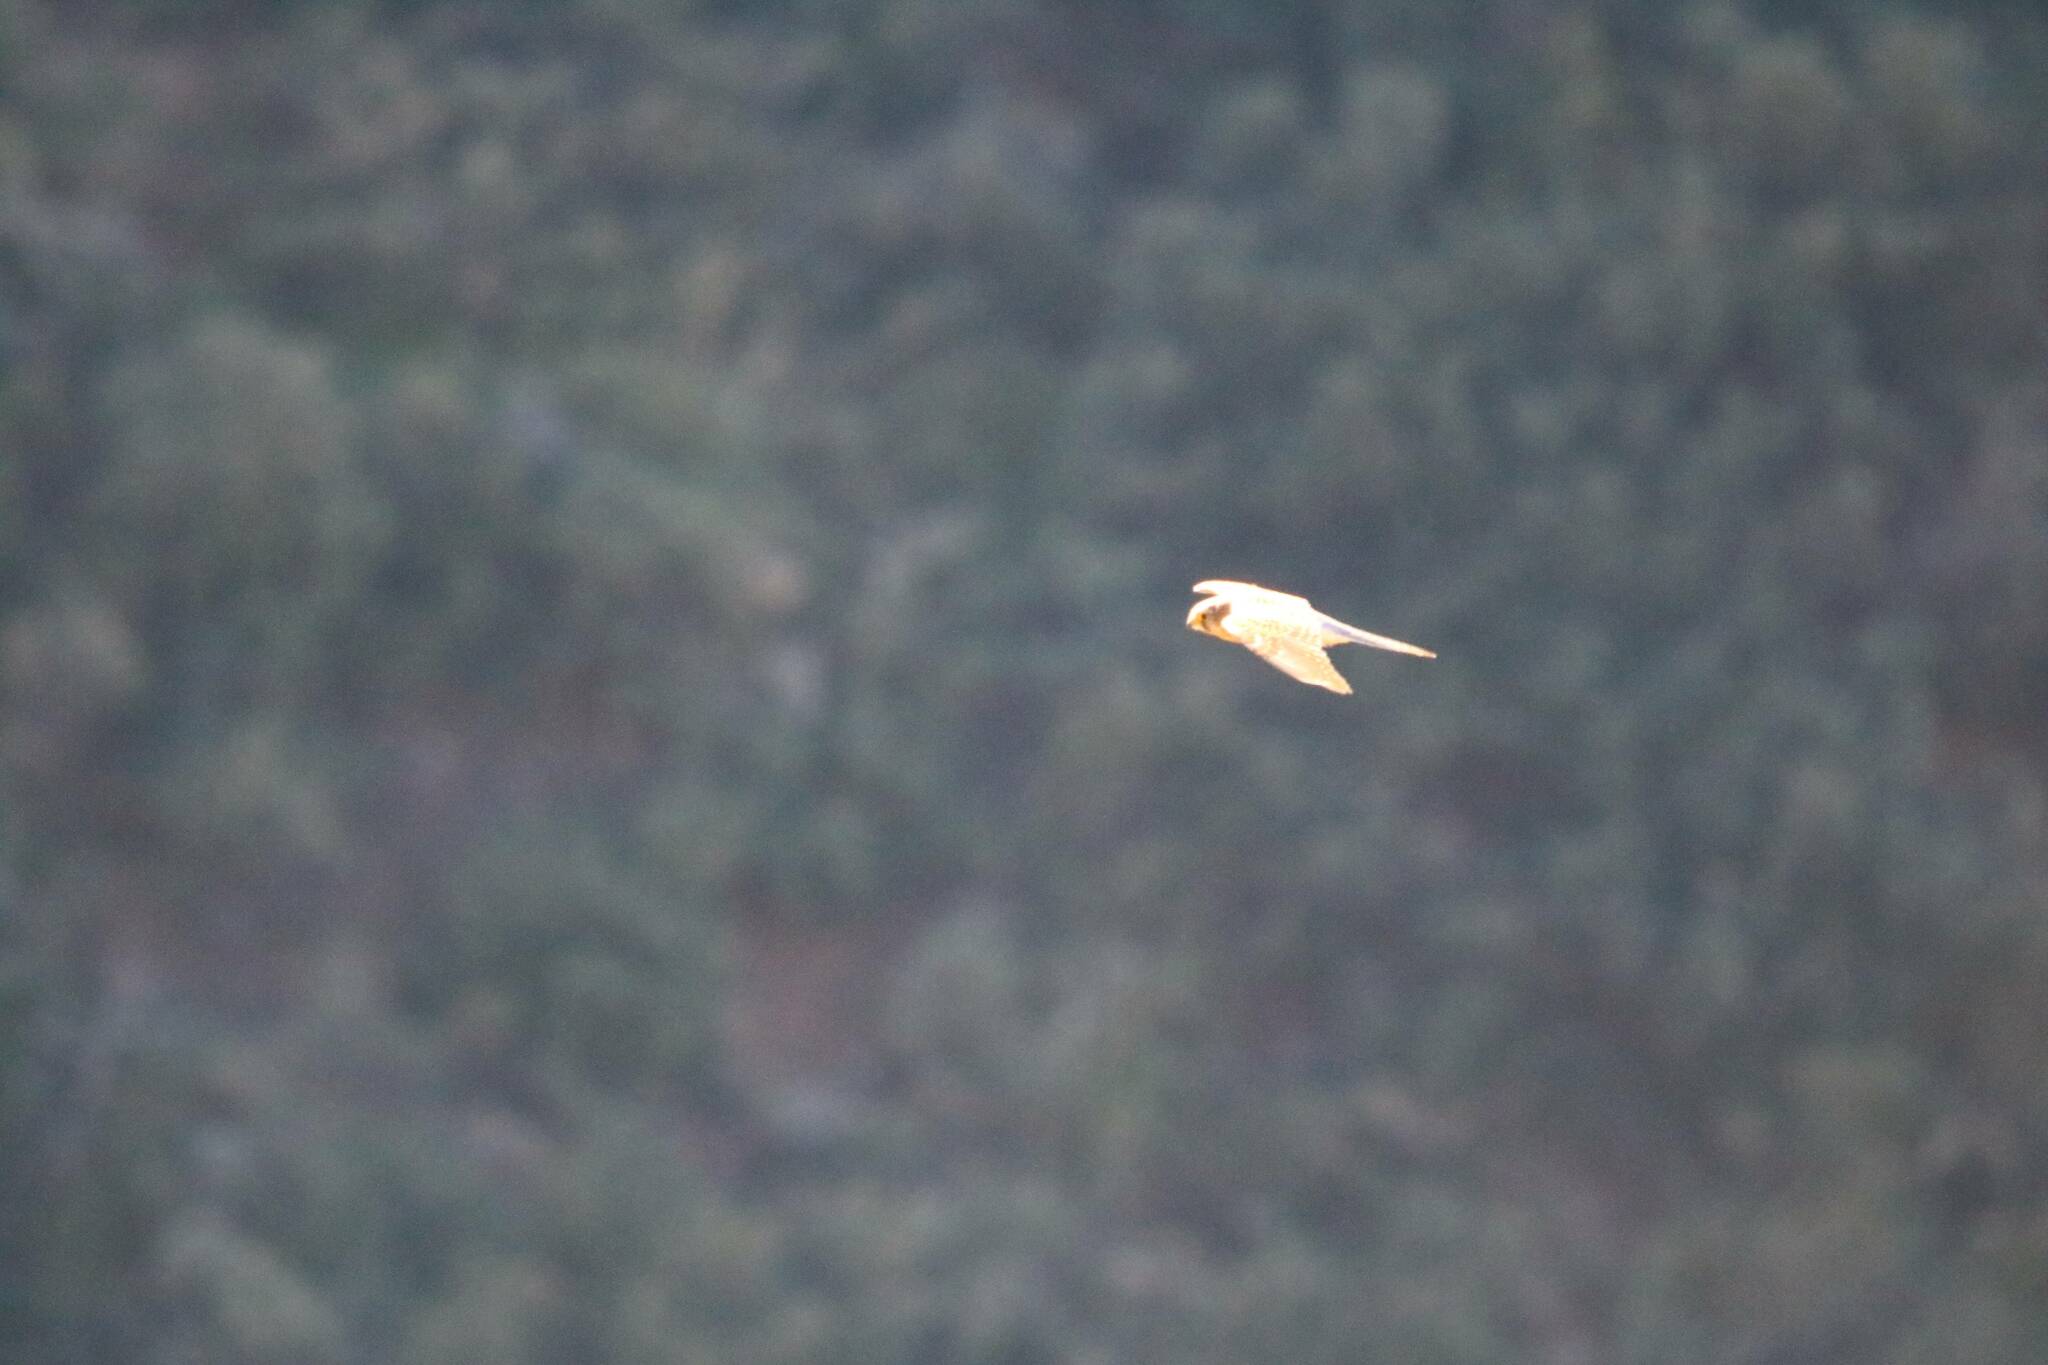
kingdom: Animalia
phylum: Chordata
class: Aves
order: Falconiformes
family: Falconidae
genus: Falco
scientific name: Falco naumanni
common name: Lesser kestrel
